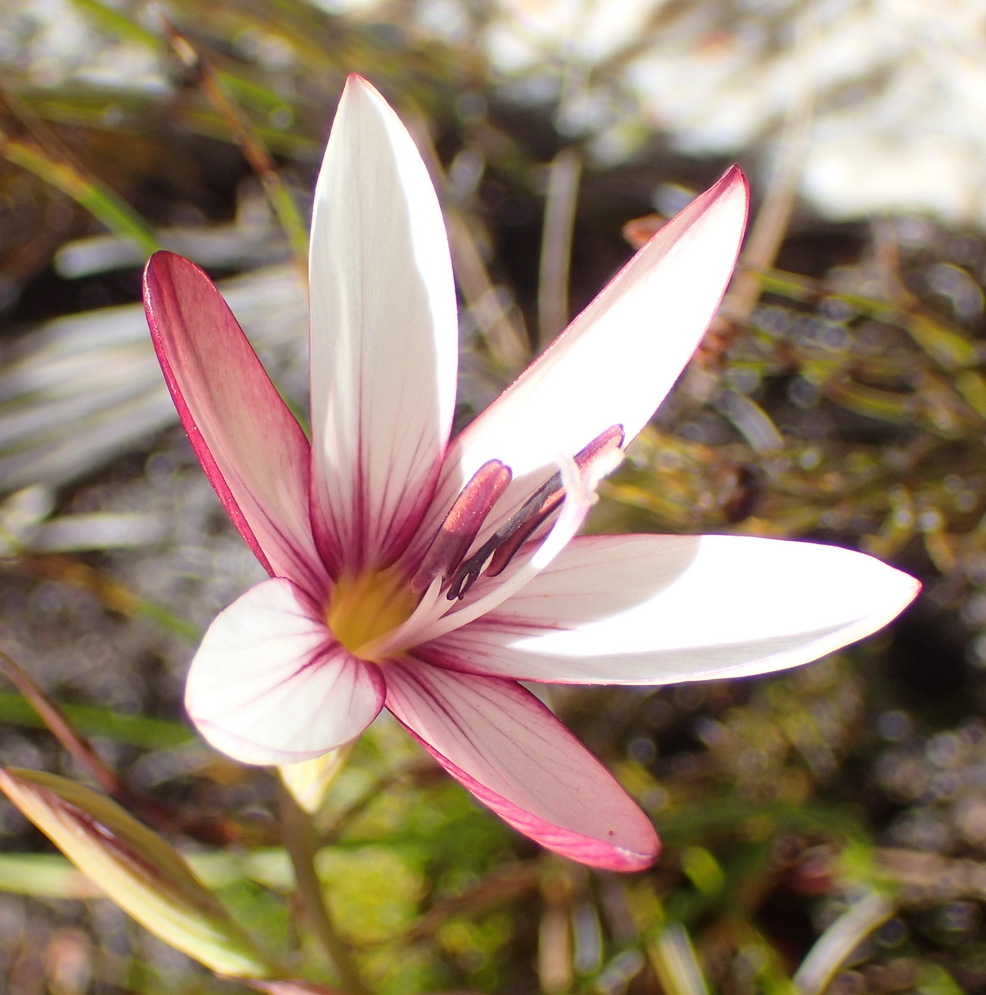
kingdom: Plantae
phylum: Tracheophyta
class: Liliopsida
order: Asparagales
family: Iridaceae
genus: Geissorhiza
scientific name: Geissorhiza fourcadei
